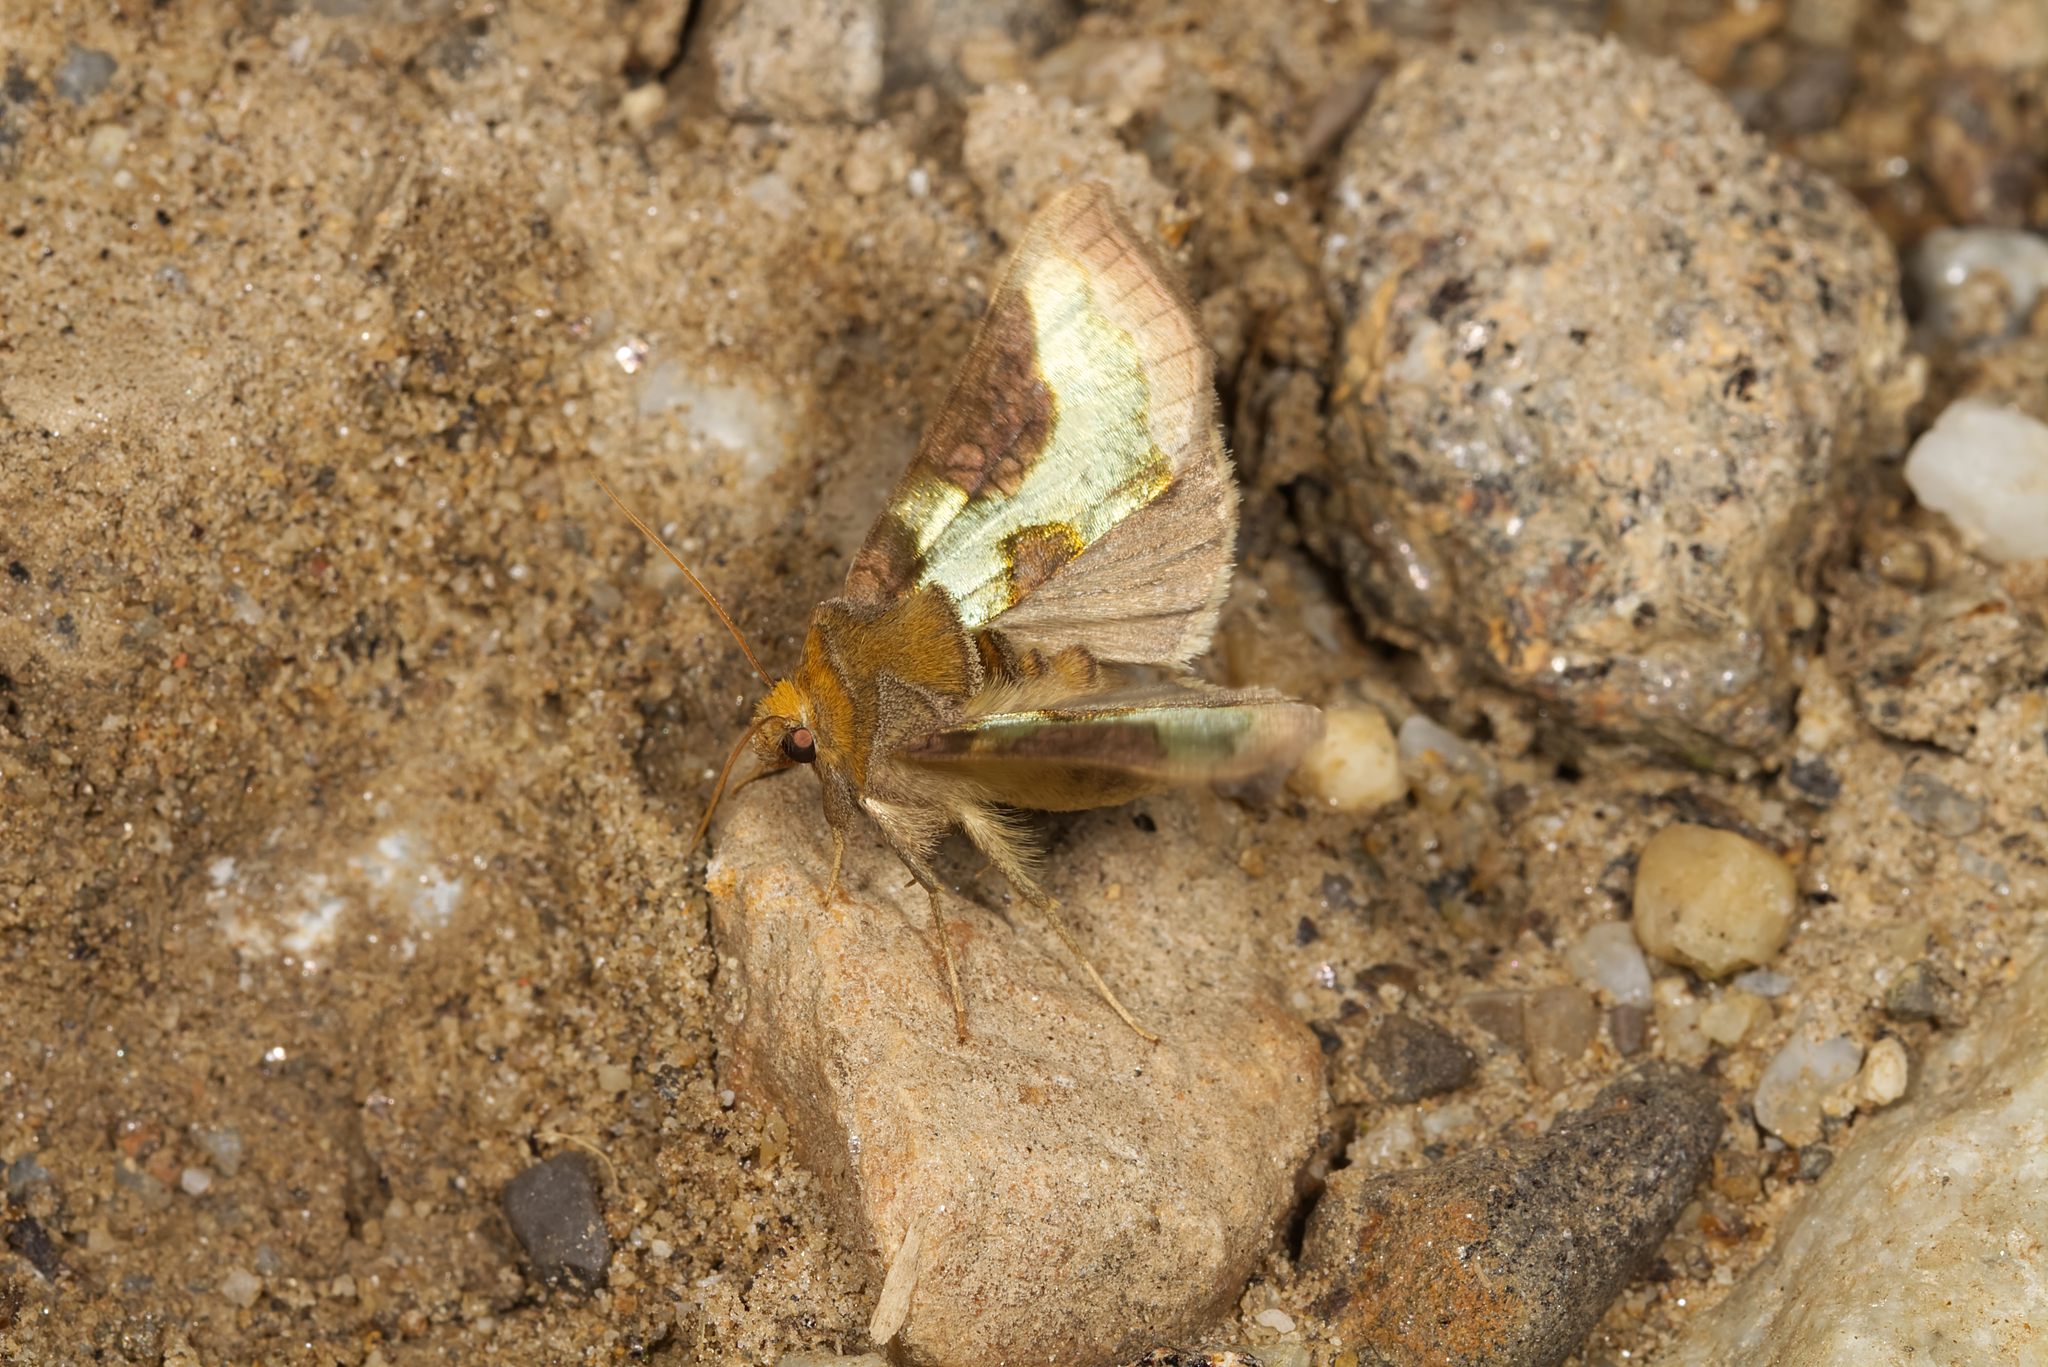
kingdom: Animalia
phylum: Arthropoda
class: Insecta
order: Lepidoptera
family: Noctuidae
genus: Diachrysia
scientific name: Diachrysia stenochrysis
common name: Cryptic burnished brass
